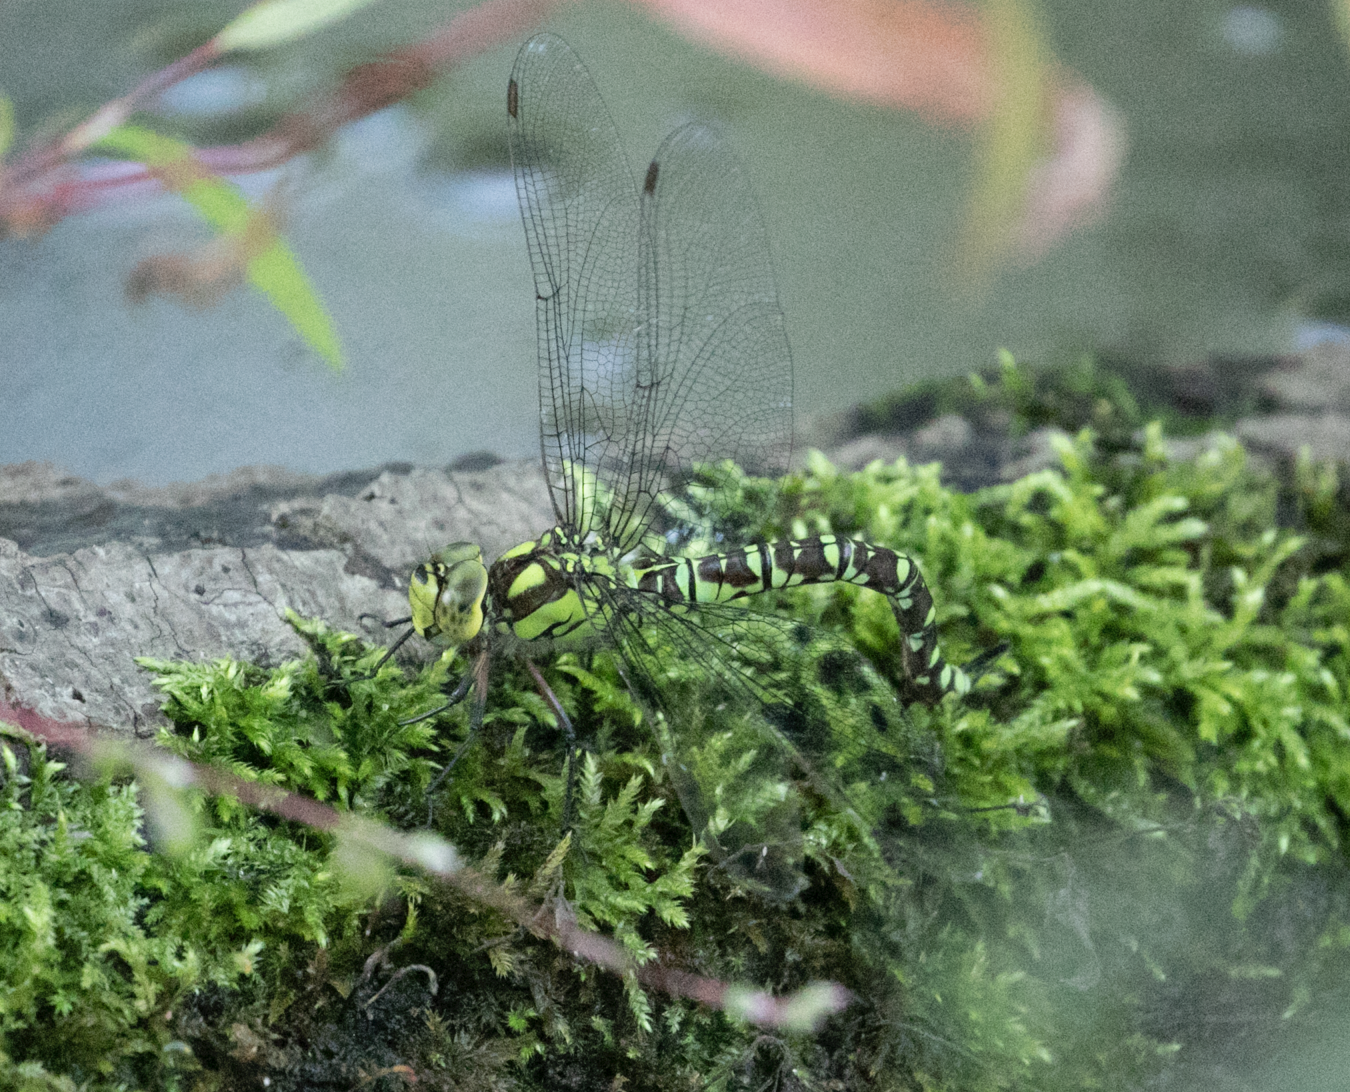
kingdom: Animalia
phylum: Arthropoda
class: Insecta
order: Odonata
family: Aeshnidae
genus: Aeshna
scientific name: Aeshna cyanea
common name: Southern hawker
